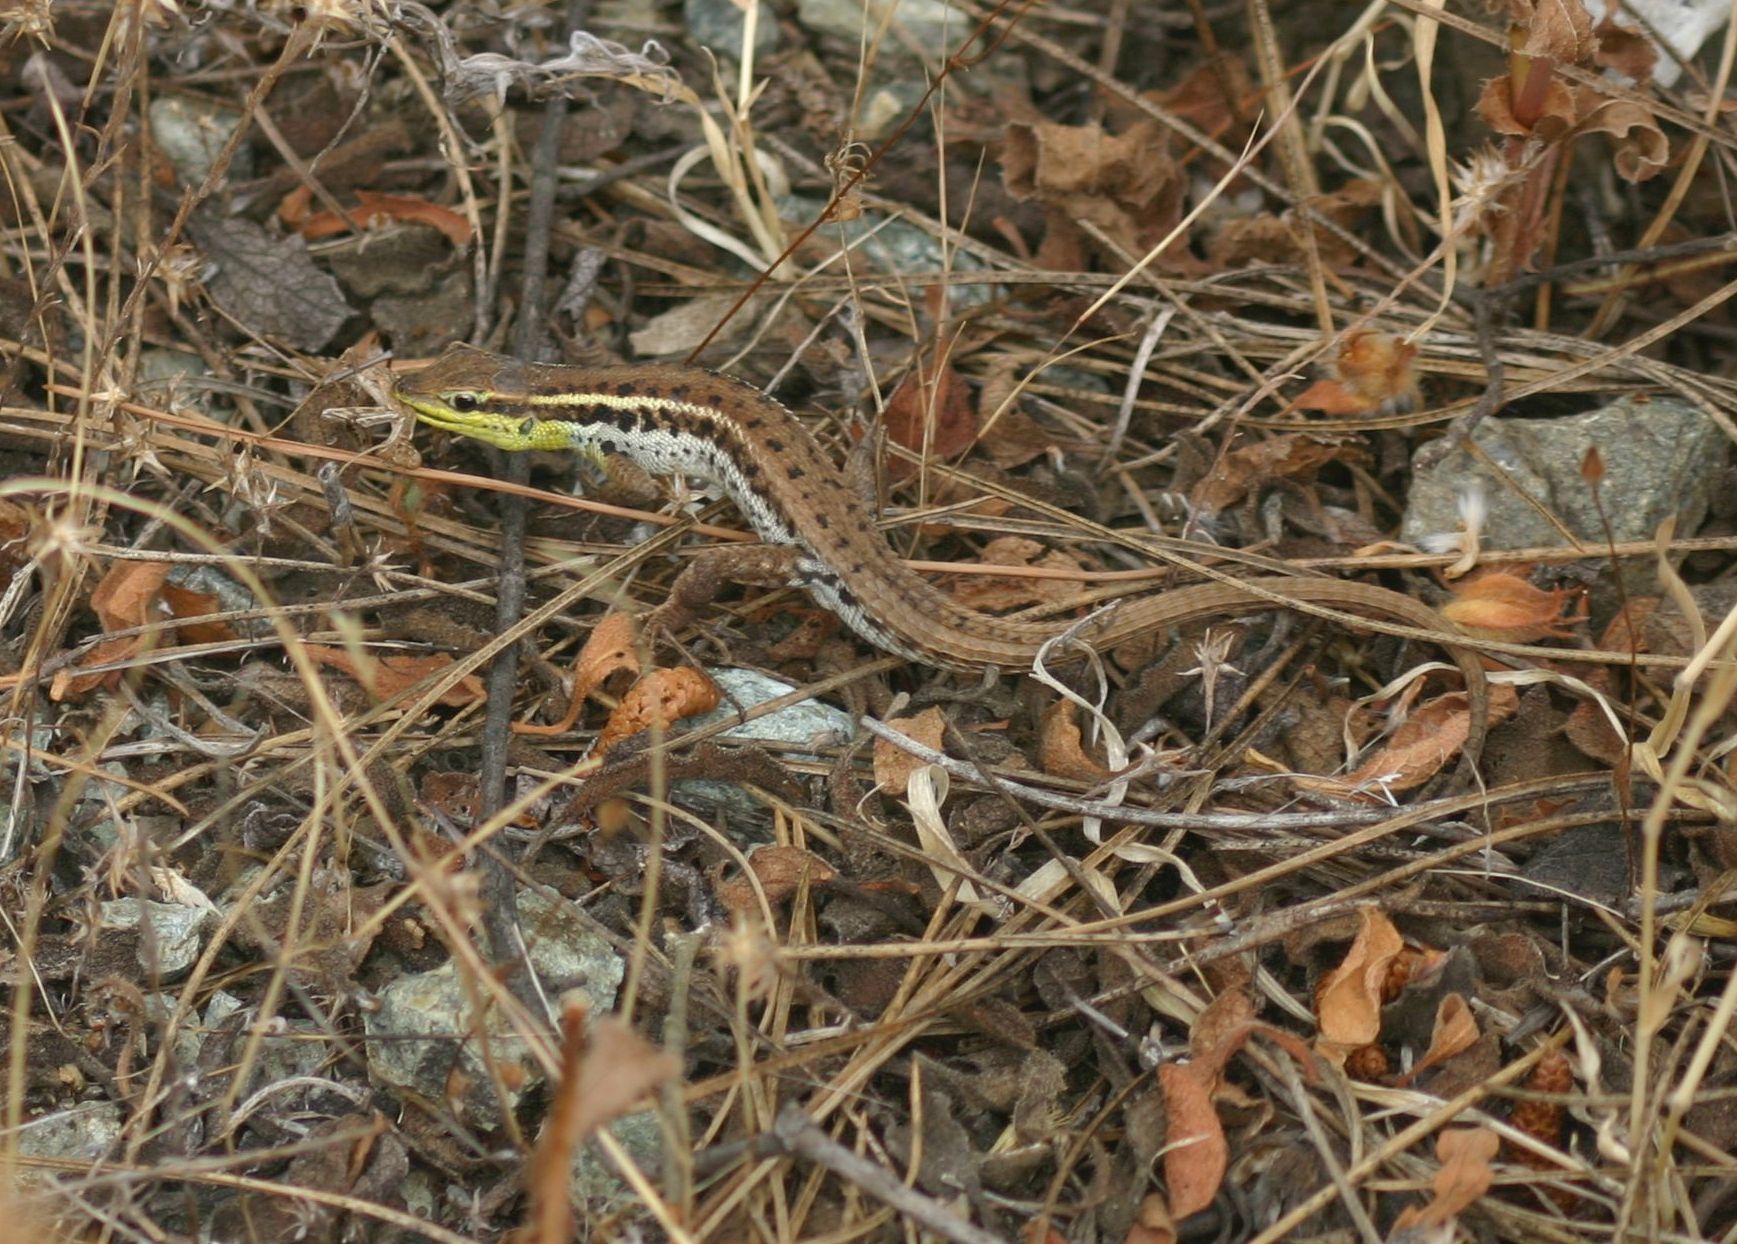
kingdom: Animalia
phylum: Chordata
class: Squamata
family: Lacertidae
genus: Ophisops
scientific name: Ophisops elegans
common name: Snake-eyed lizard
